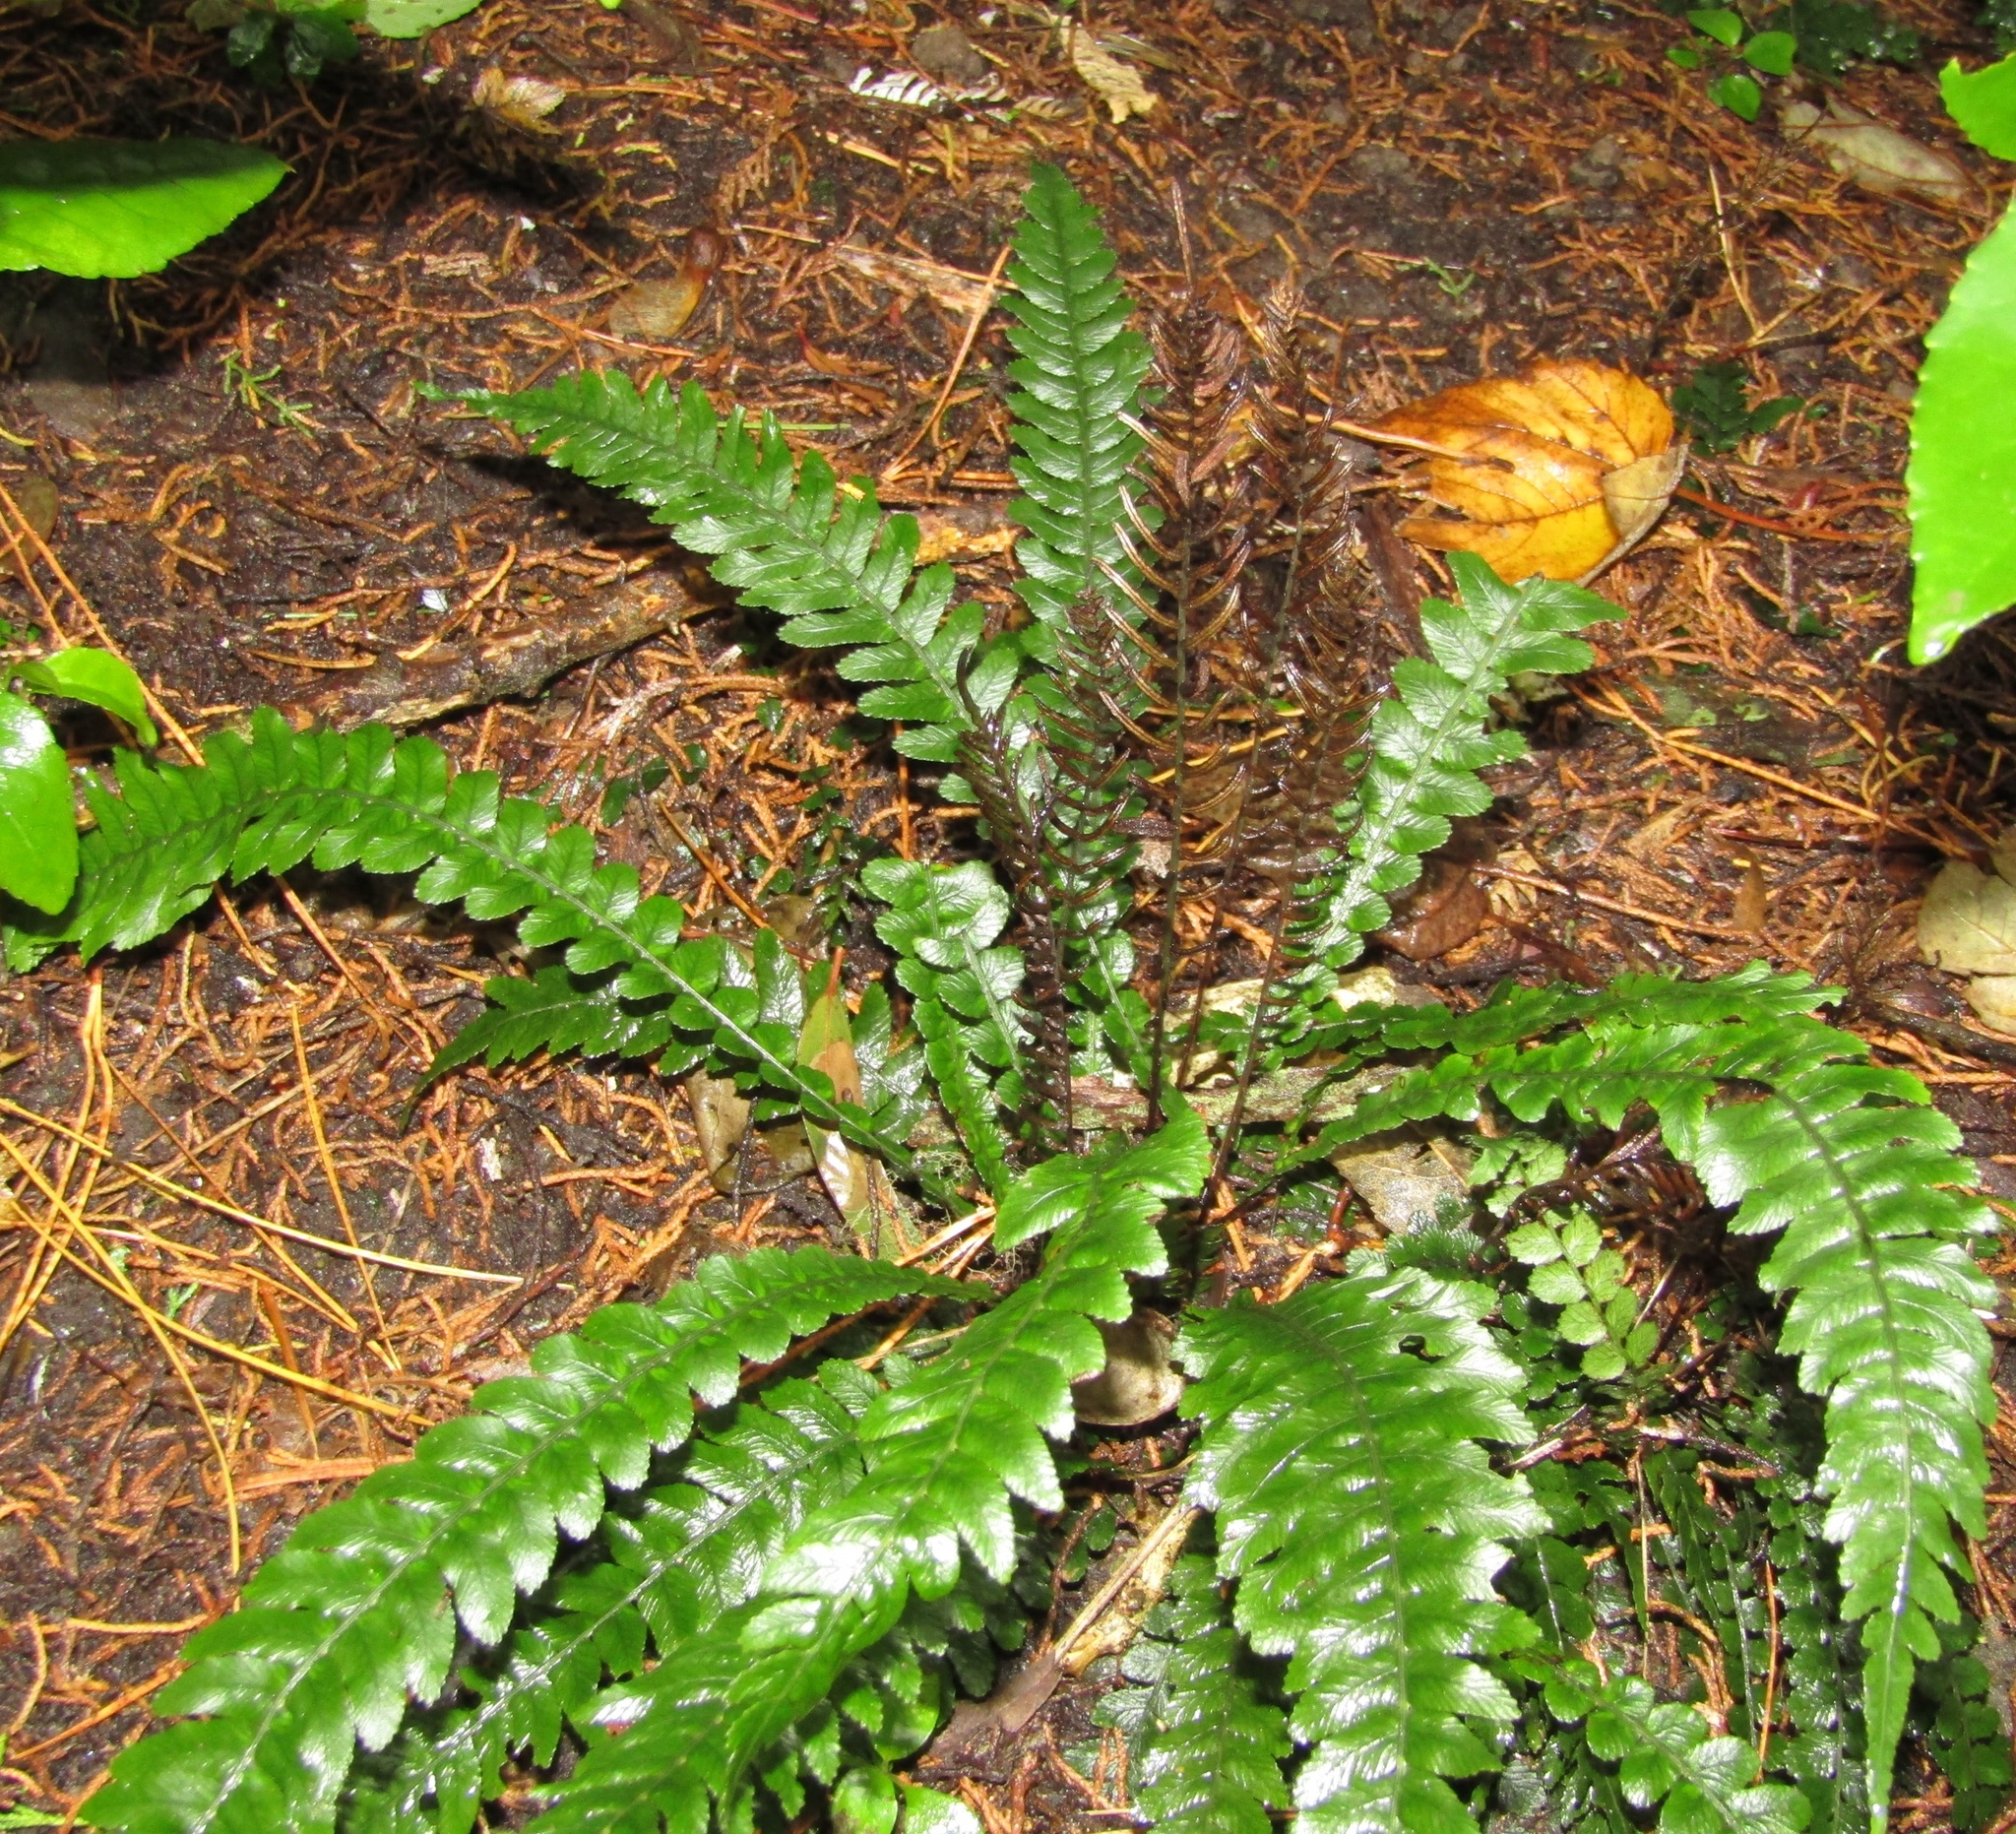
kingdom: Plantae
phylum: Tracheophyta
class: Polypodiopsida
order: Polypodiales
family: Blechnaceae
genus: Austroblechnum
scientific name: Austroblechnum lanceolatum
